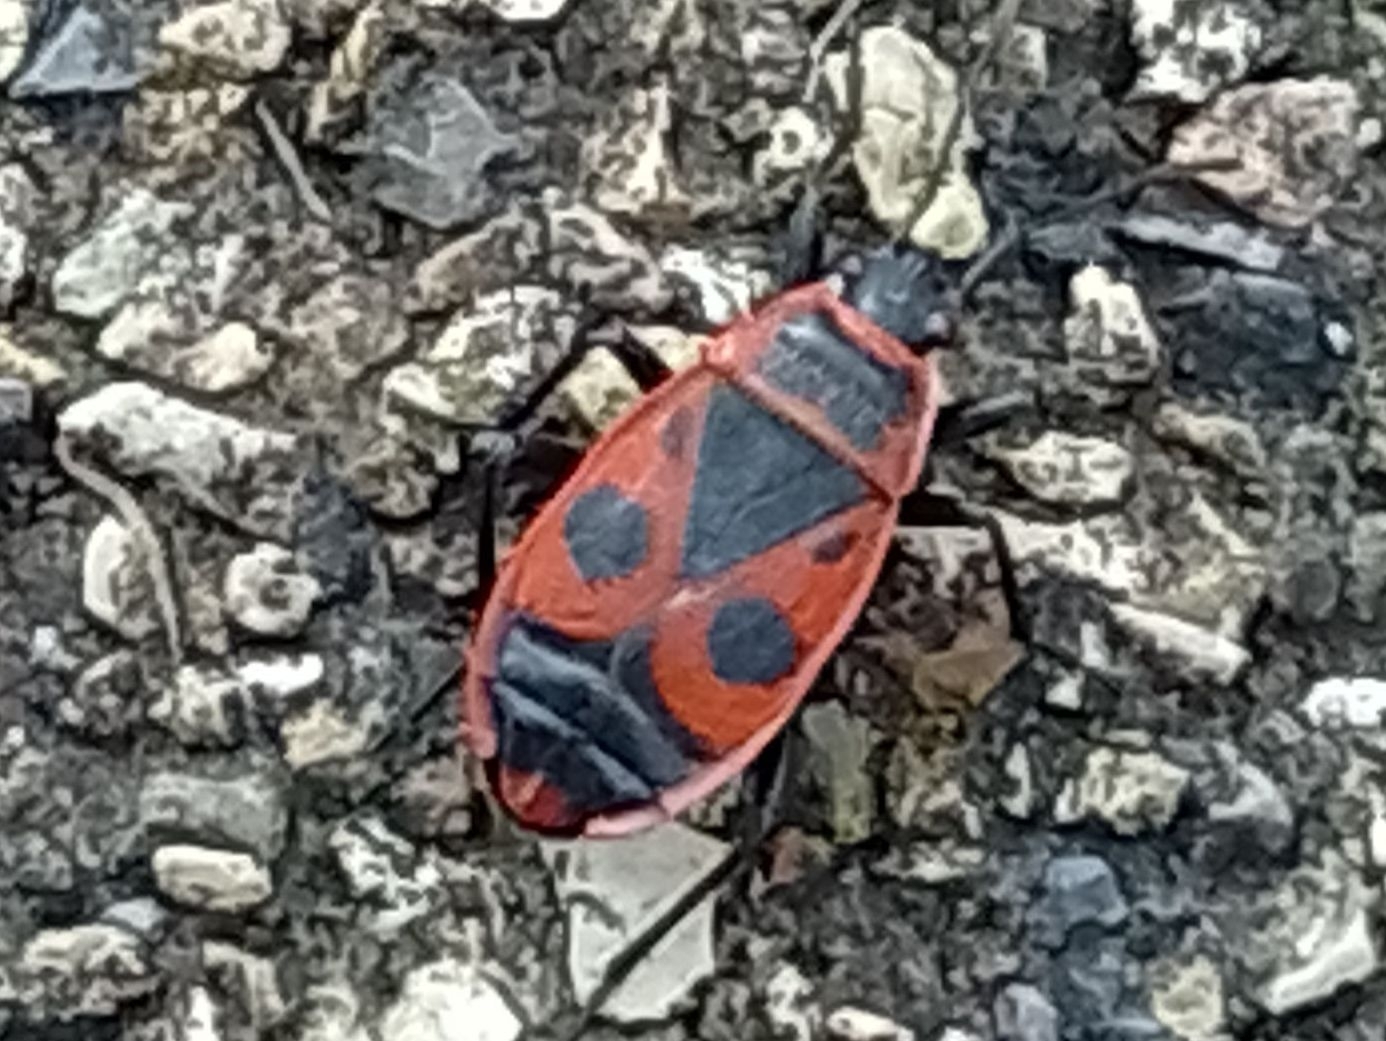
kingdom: Animalia
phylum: Arthropoda
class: Insecta
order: Hemiptera
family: Pyrrhocoridae
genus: Pyrrhocoris
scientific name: Pyrrhocoris apterus
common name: Firebug
